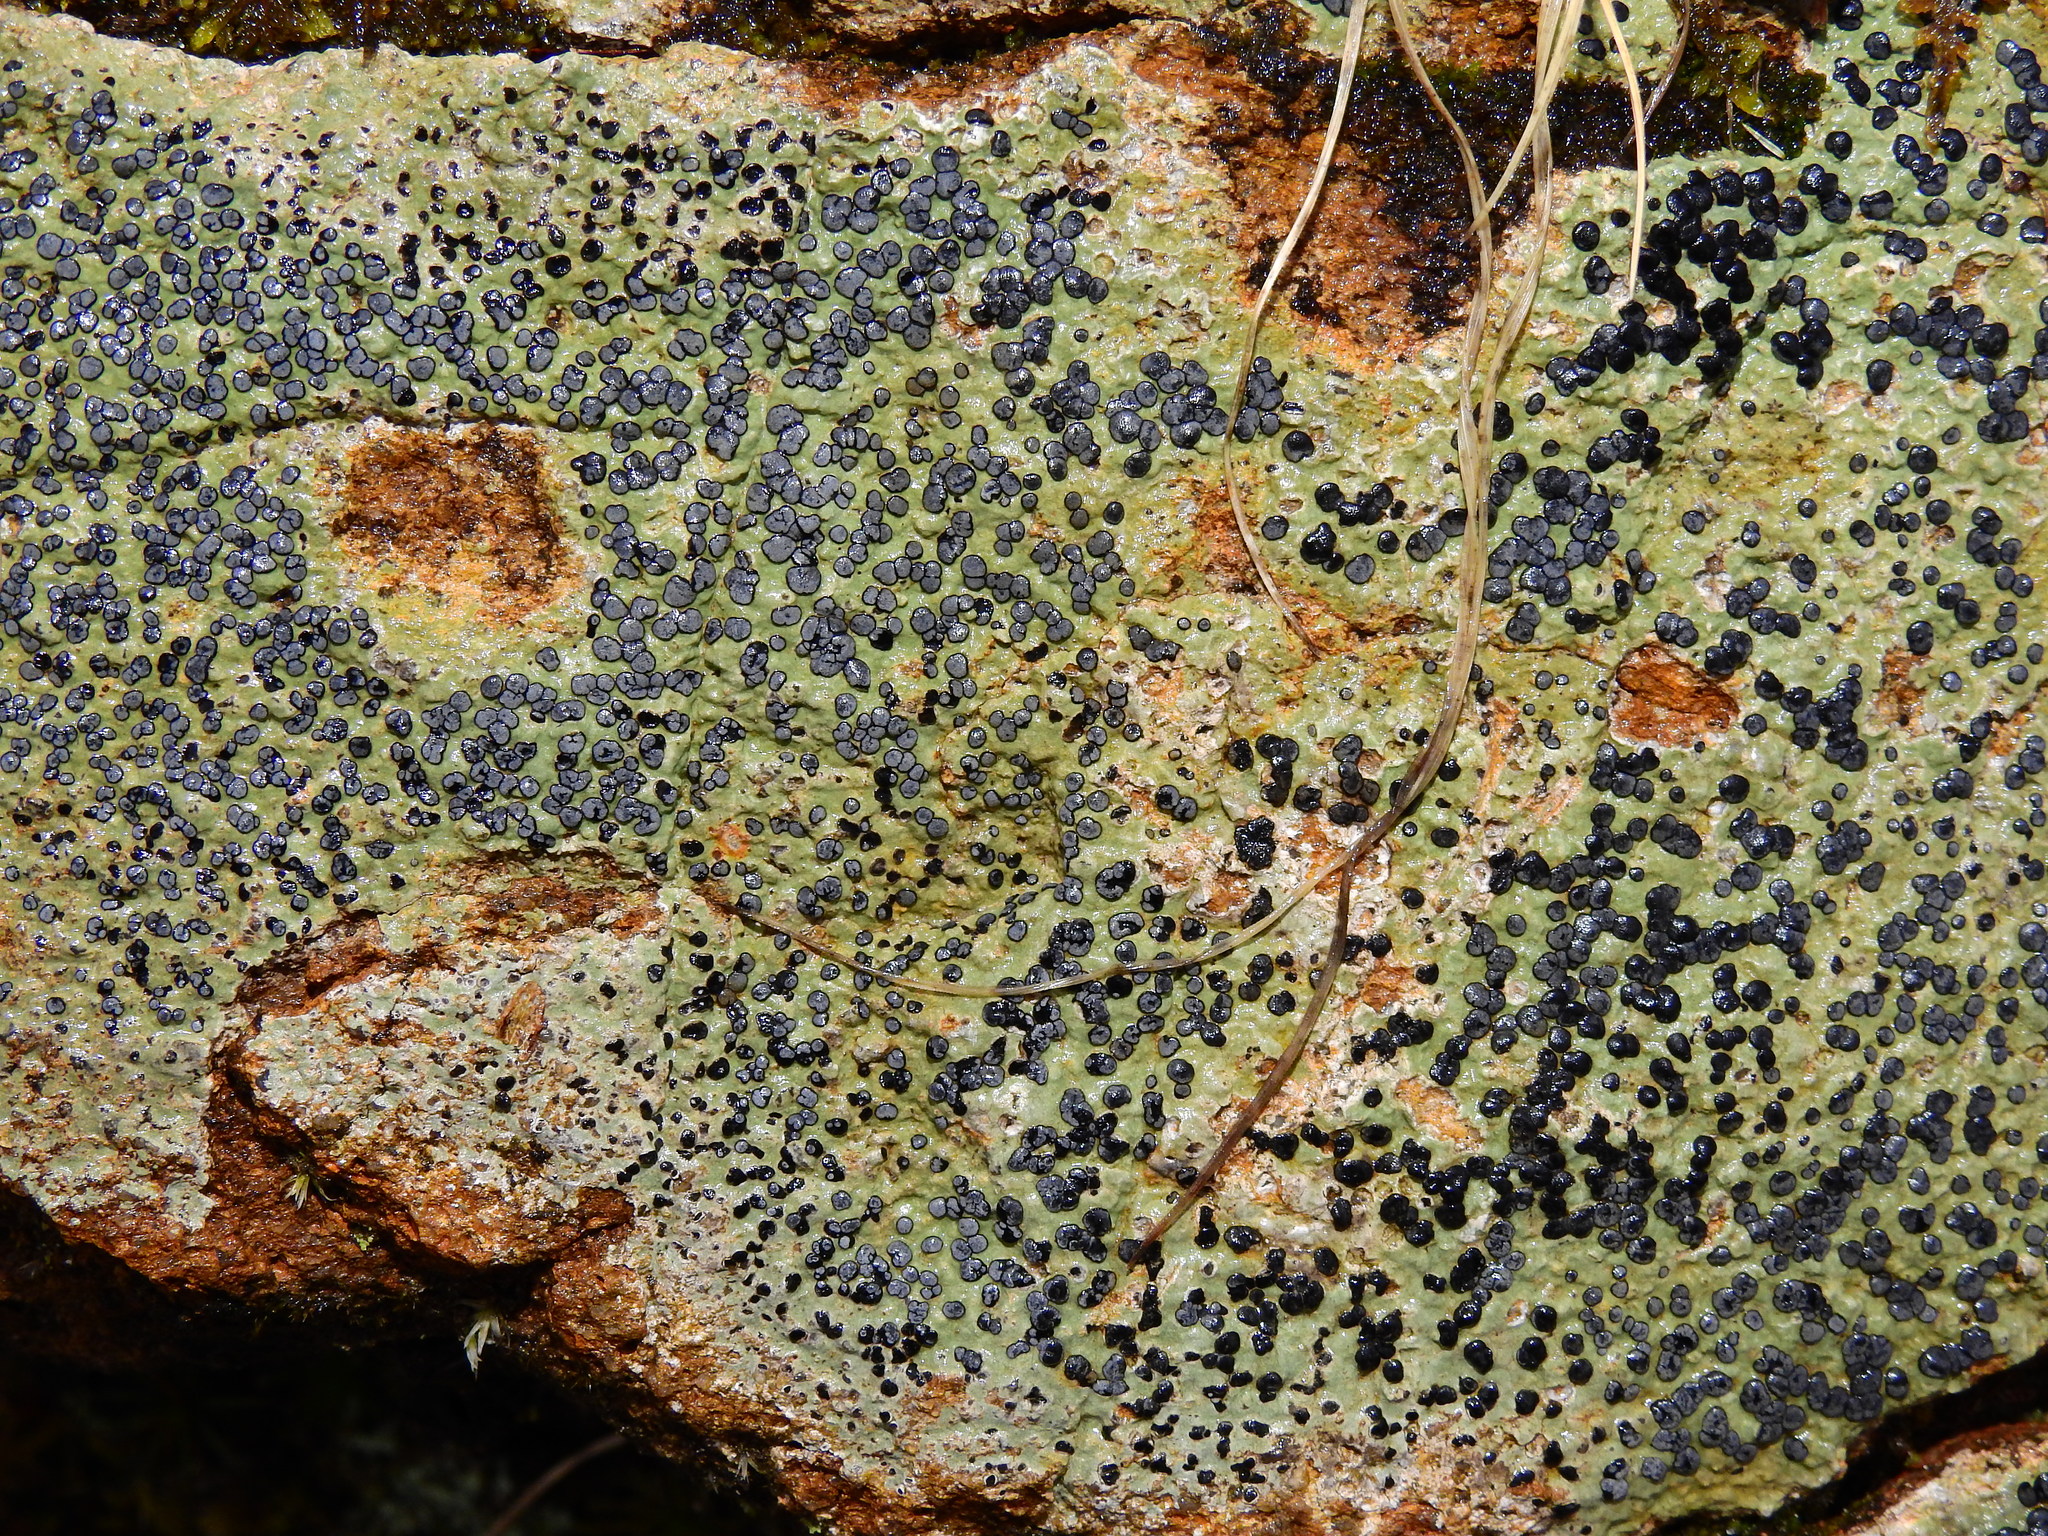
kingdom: Fungi
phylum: Ascomycota
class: Lecanoromycetes
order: Lecideales
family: Lecideaceae
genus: Porpidia
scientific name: Porpidia albocaerulescens
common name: Smokey-eyed boulder lichen
